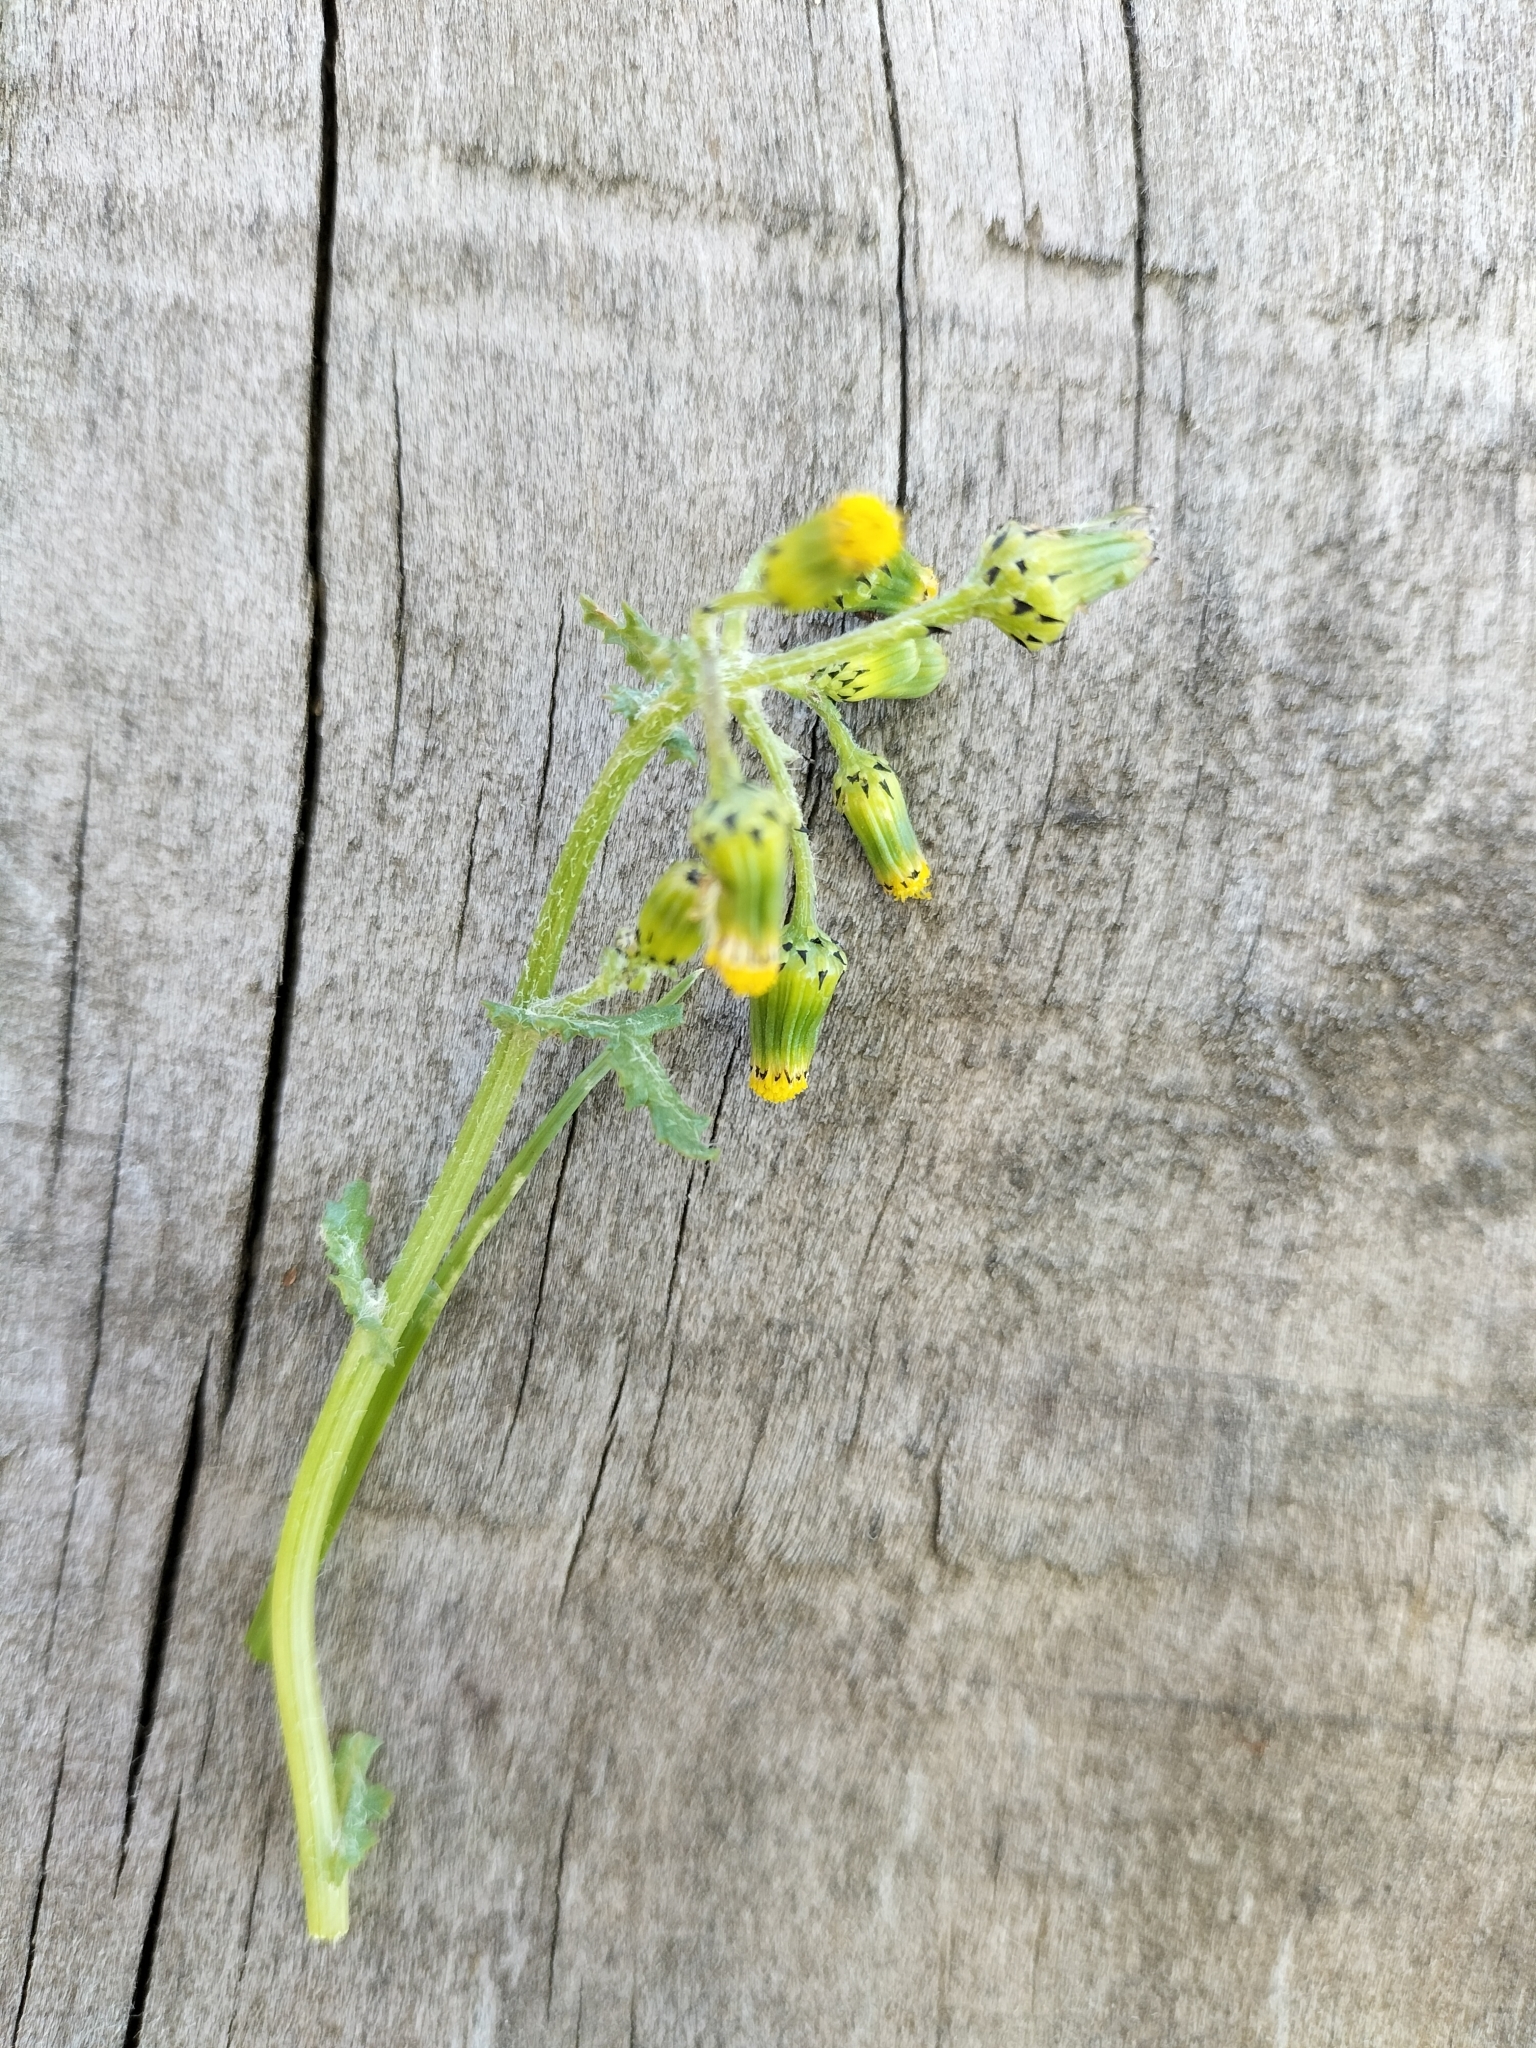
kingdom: Plantae
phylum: Tracheophyta
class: Magnoliopsida
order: Asterales
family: Asteraceae
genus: Senecio
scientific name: Senecio vulgaris
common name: Old-man-in-the-spring
